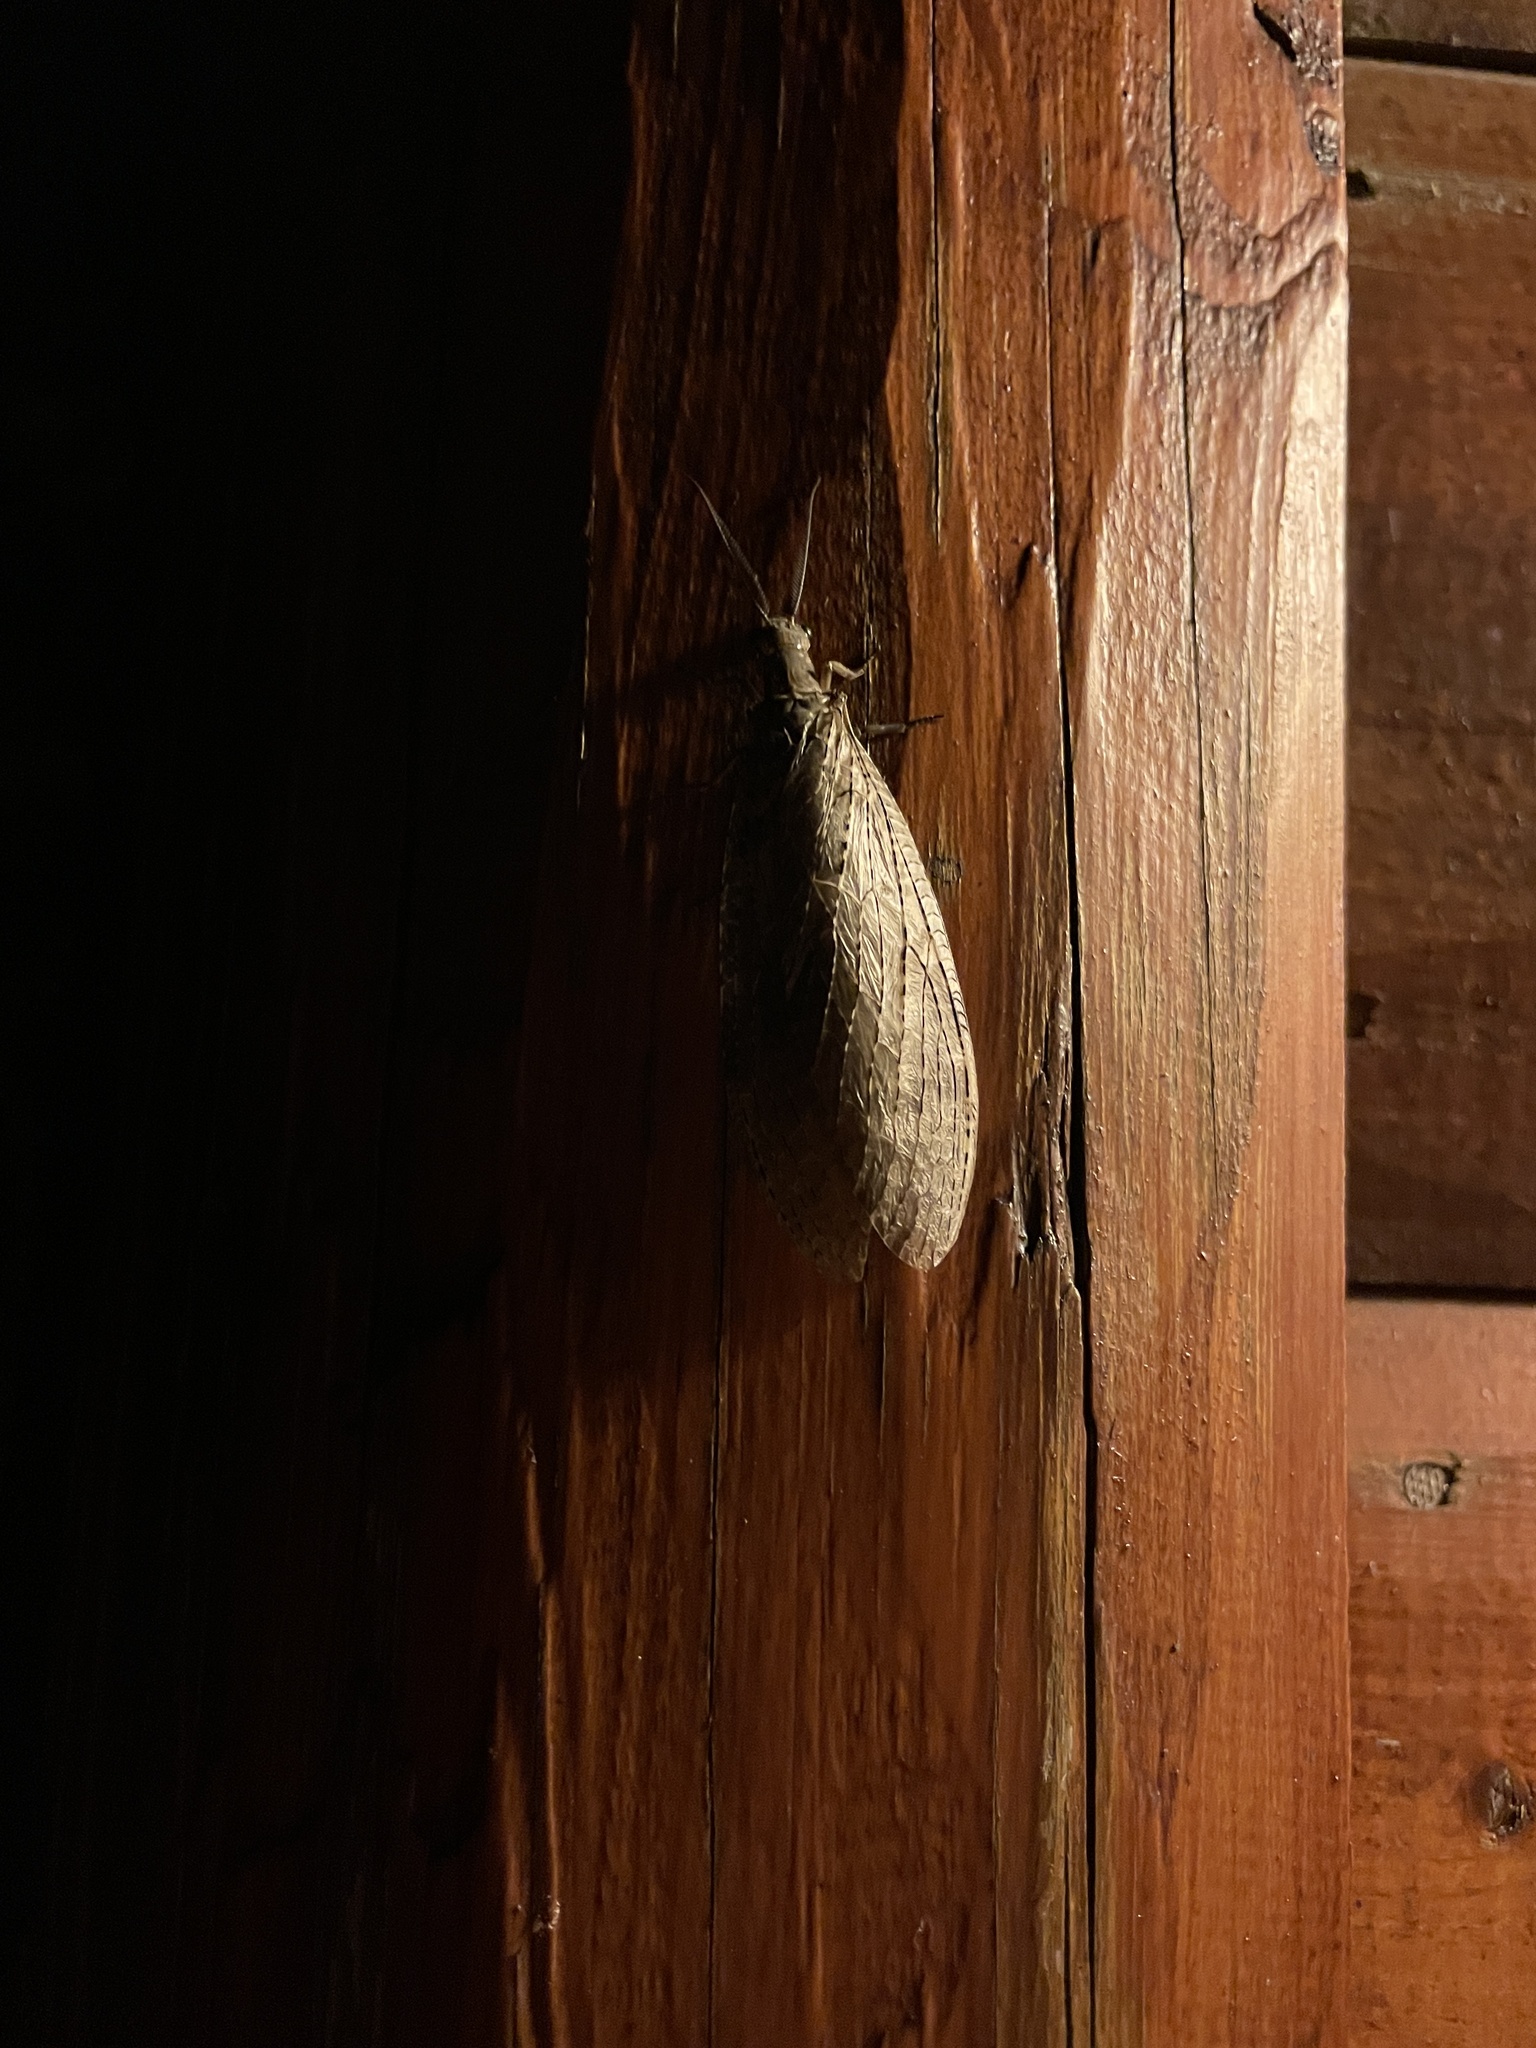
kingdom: Animalia
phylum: Arthropoda
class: Insecta
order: Megaloptera
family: Corydalidae
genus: Chauliodes
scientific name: Chauliodes pectinicornis
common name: Summer fishfly
